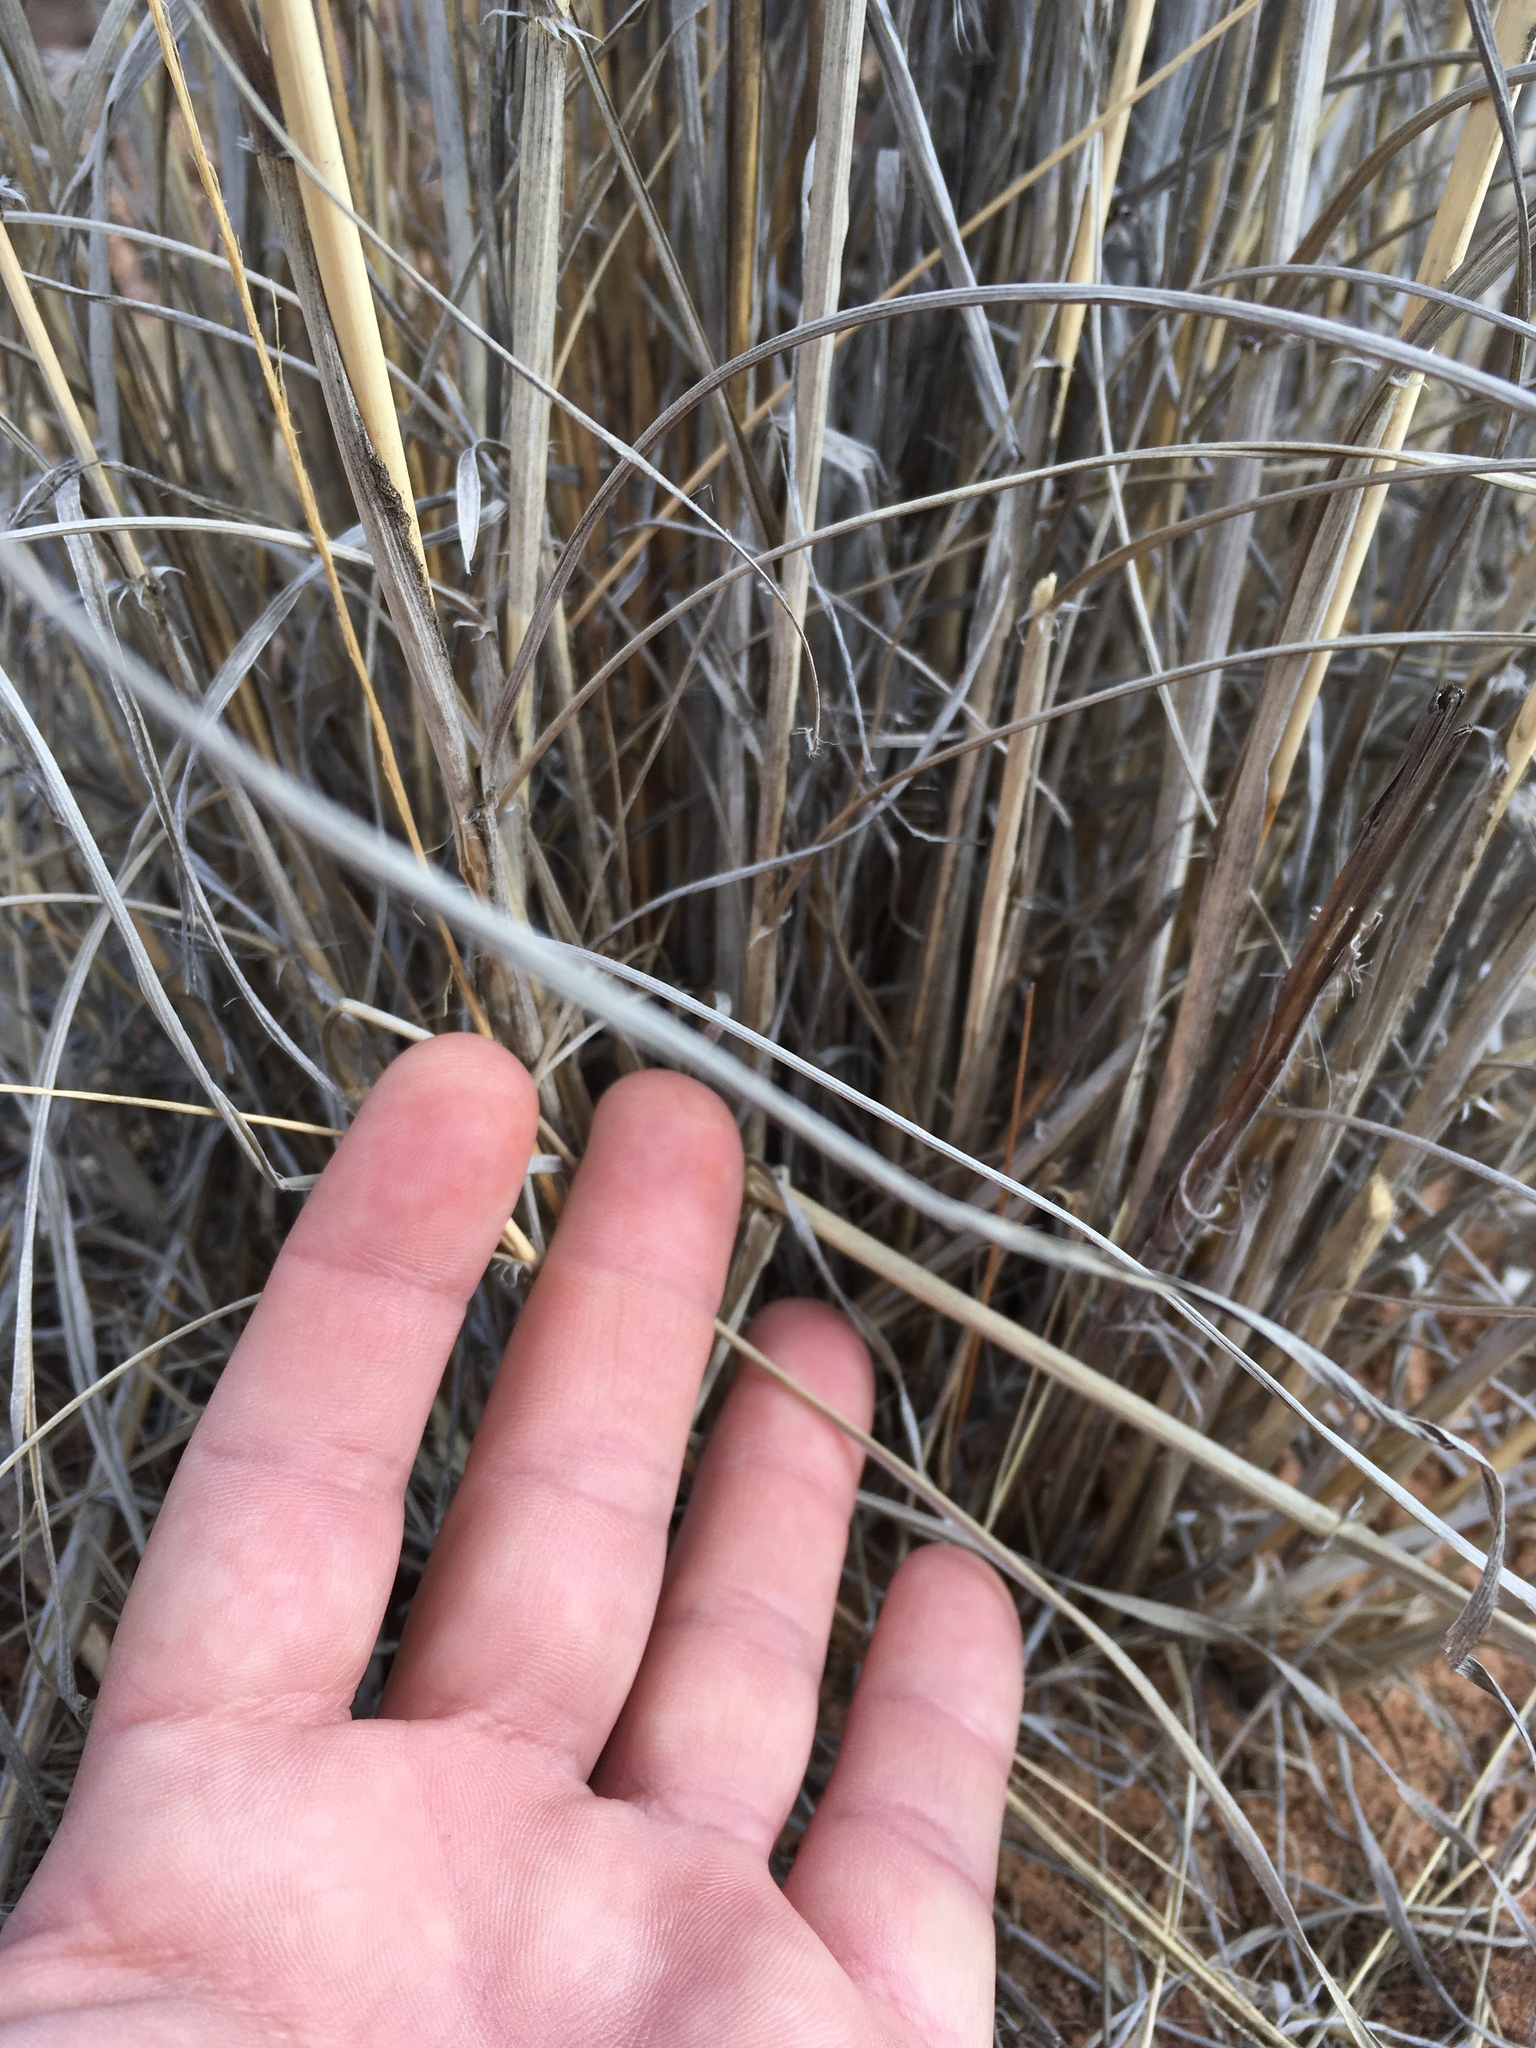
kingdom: Plantae
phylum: Tracheophyta
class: Liliopsida
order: Poales
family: Poaceae
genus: Sporobolus
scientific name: Sporobolus contractus
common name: Spike dropseed
